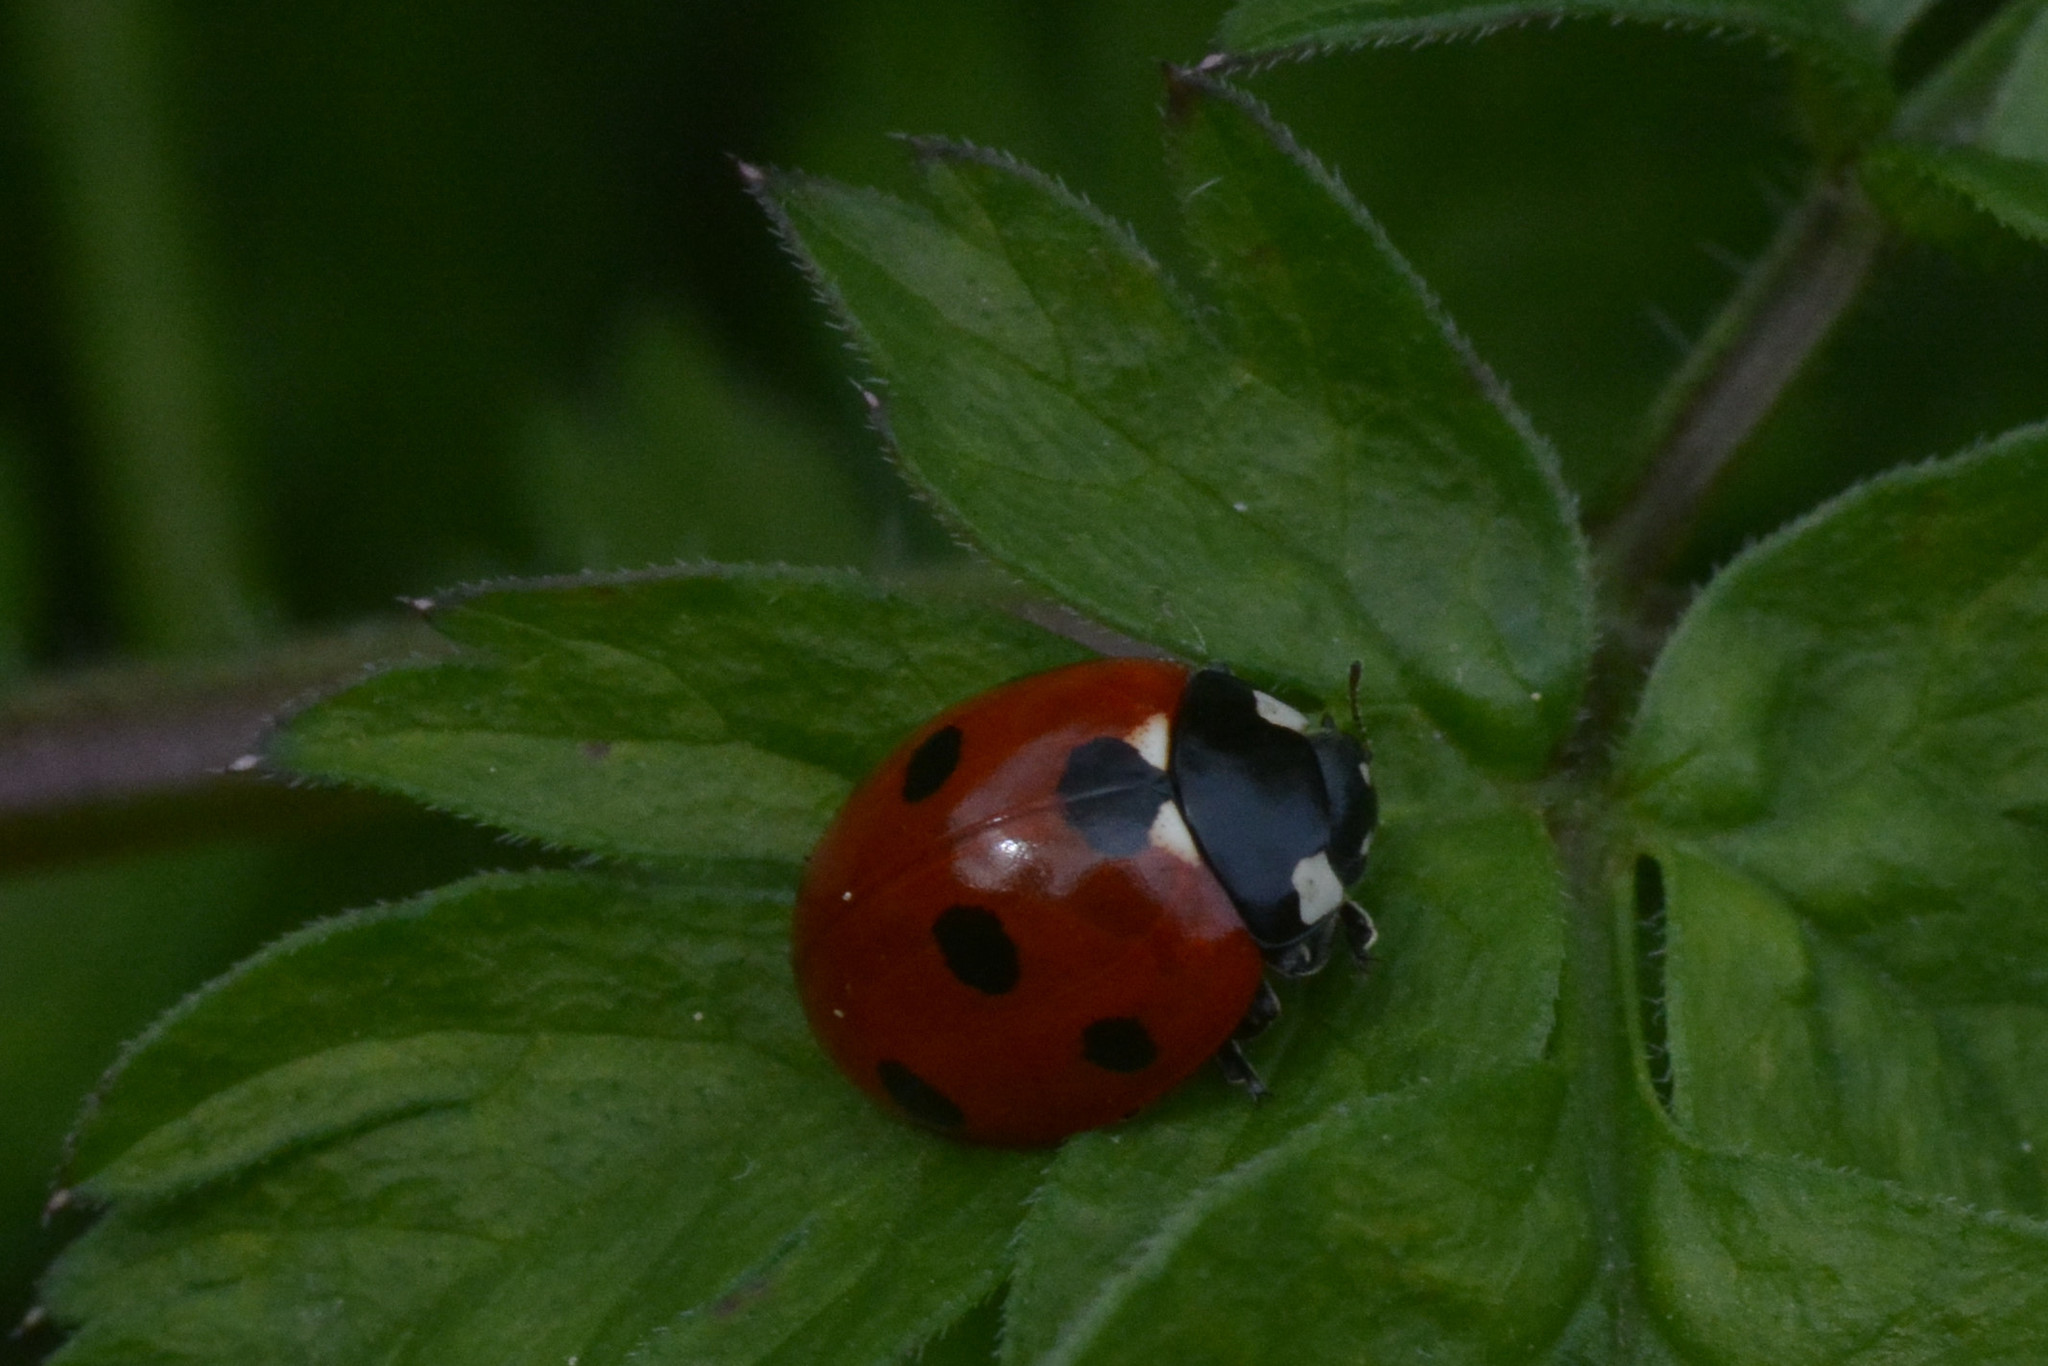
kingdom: Animalia
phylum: Arthropoda
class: Insecta
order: Coleoptera
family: Coccinellidae
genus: Coccinella
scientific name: Coccinella septempunctata
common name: Sevenspotted lady beetle
